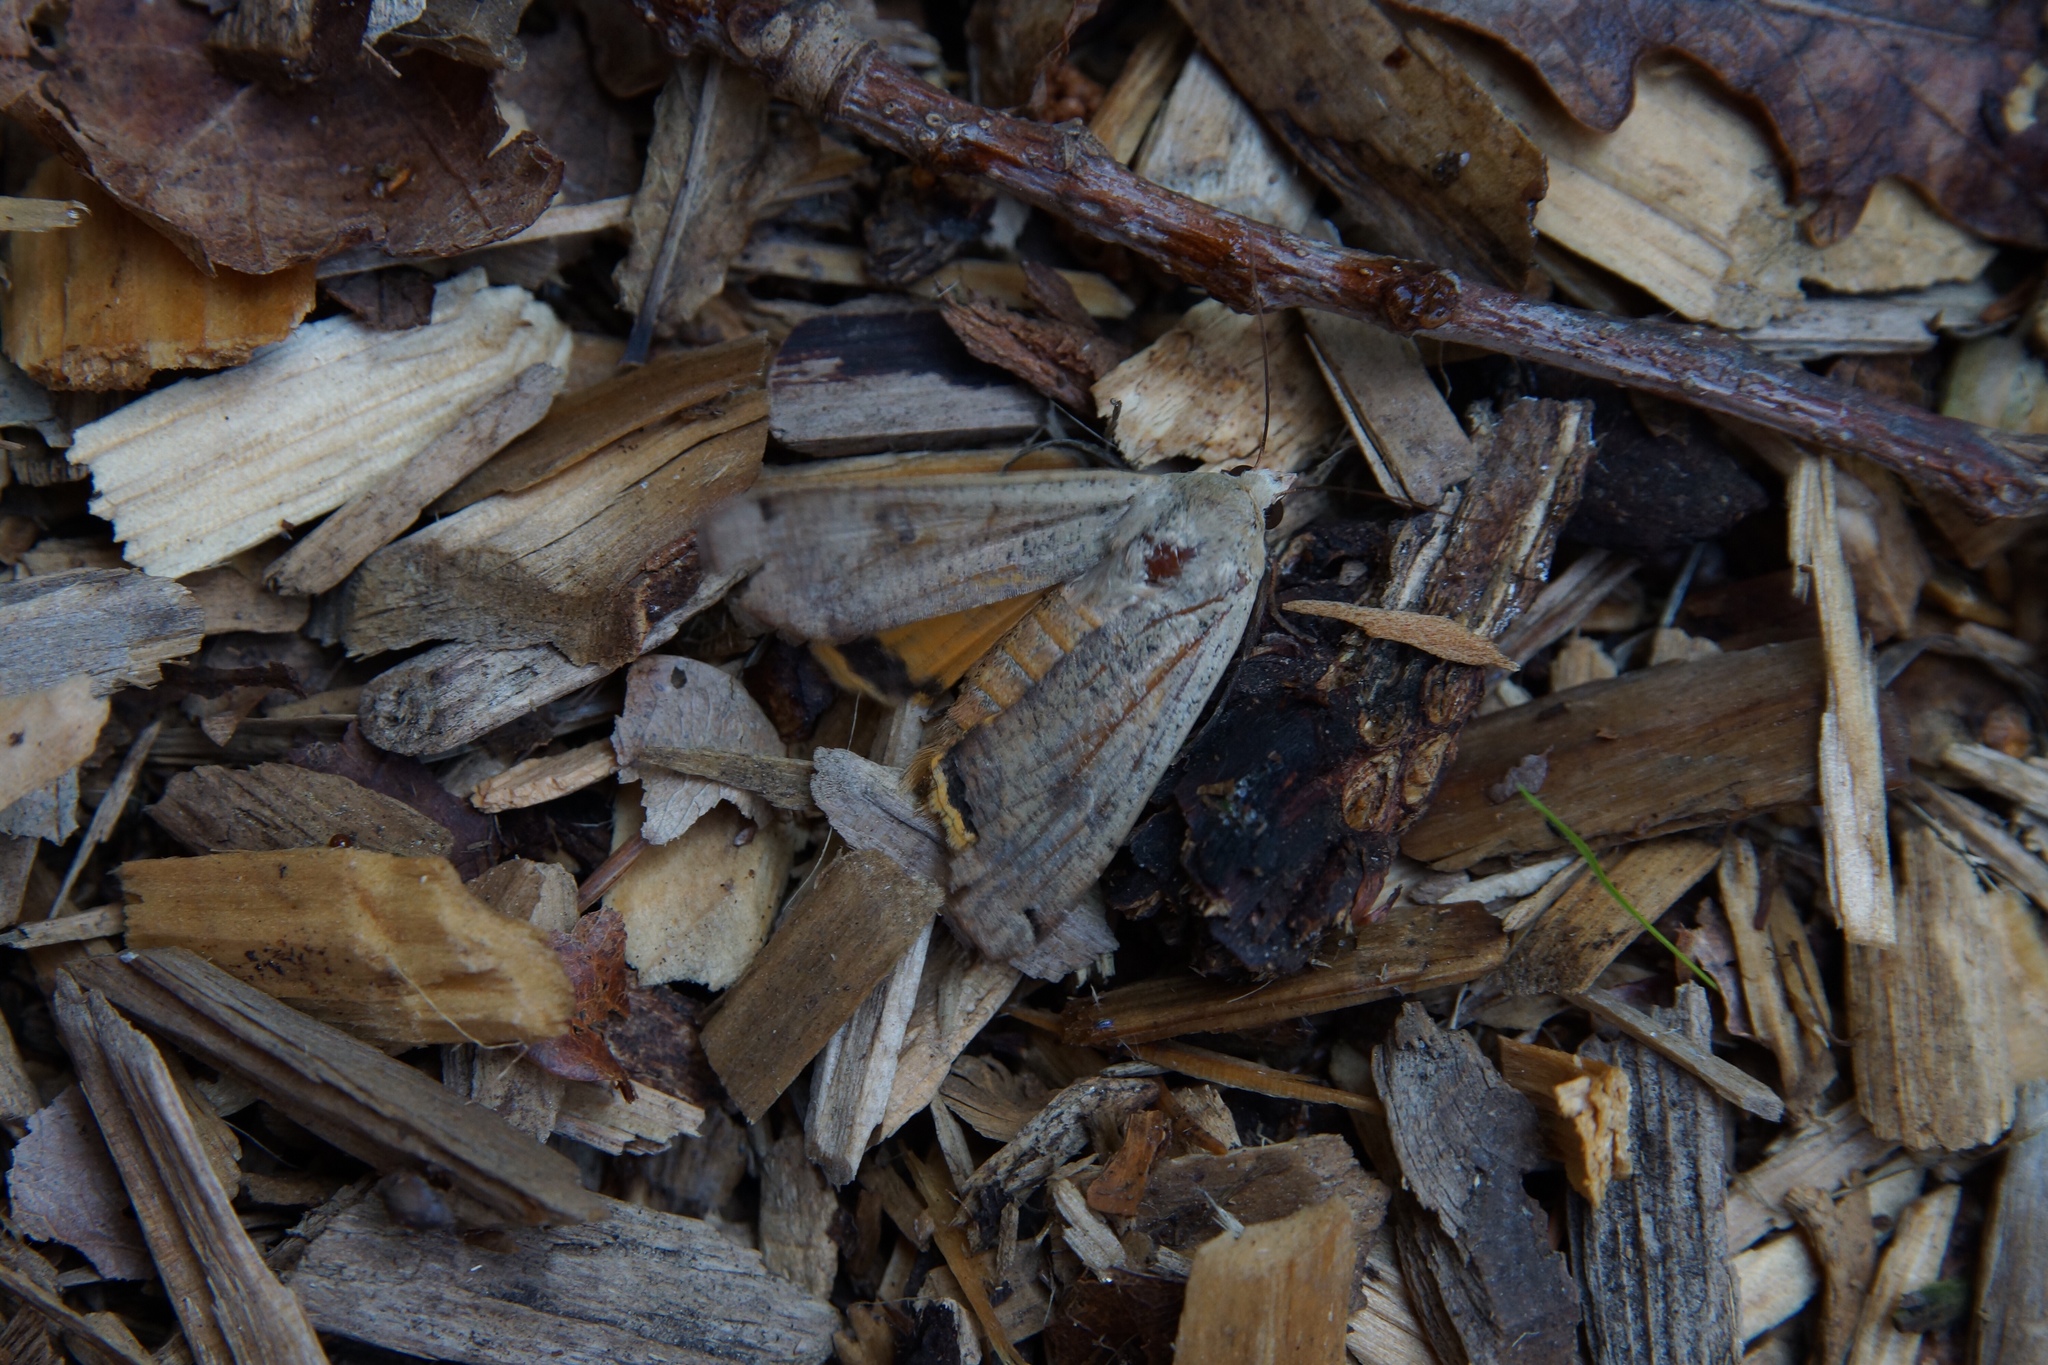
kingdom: Animalia
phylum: Arthropoda
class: Insecta
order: Lepidoptera
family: Noctuidae
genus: Noctua
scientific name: Noctua pronuba
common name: Large yellow underwing
